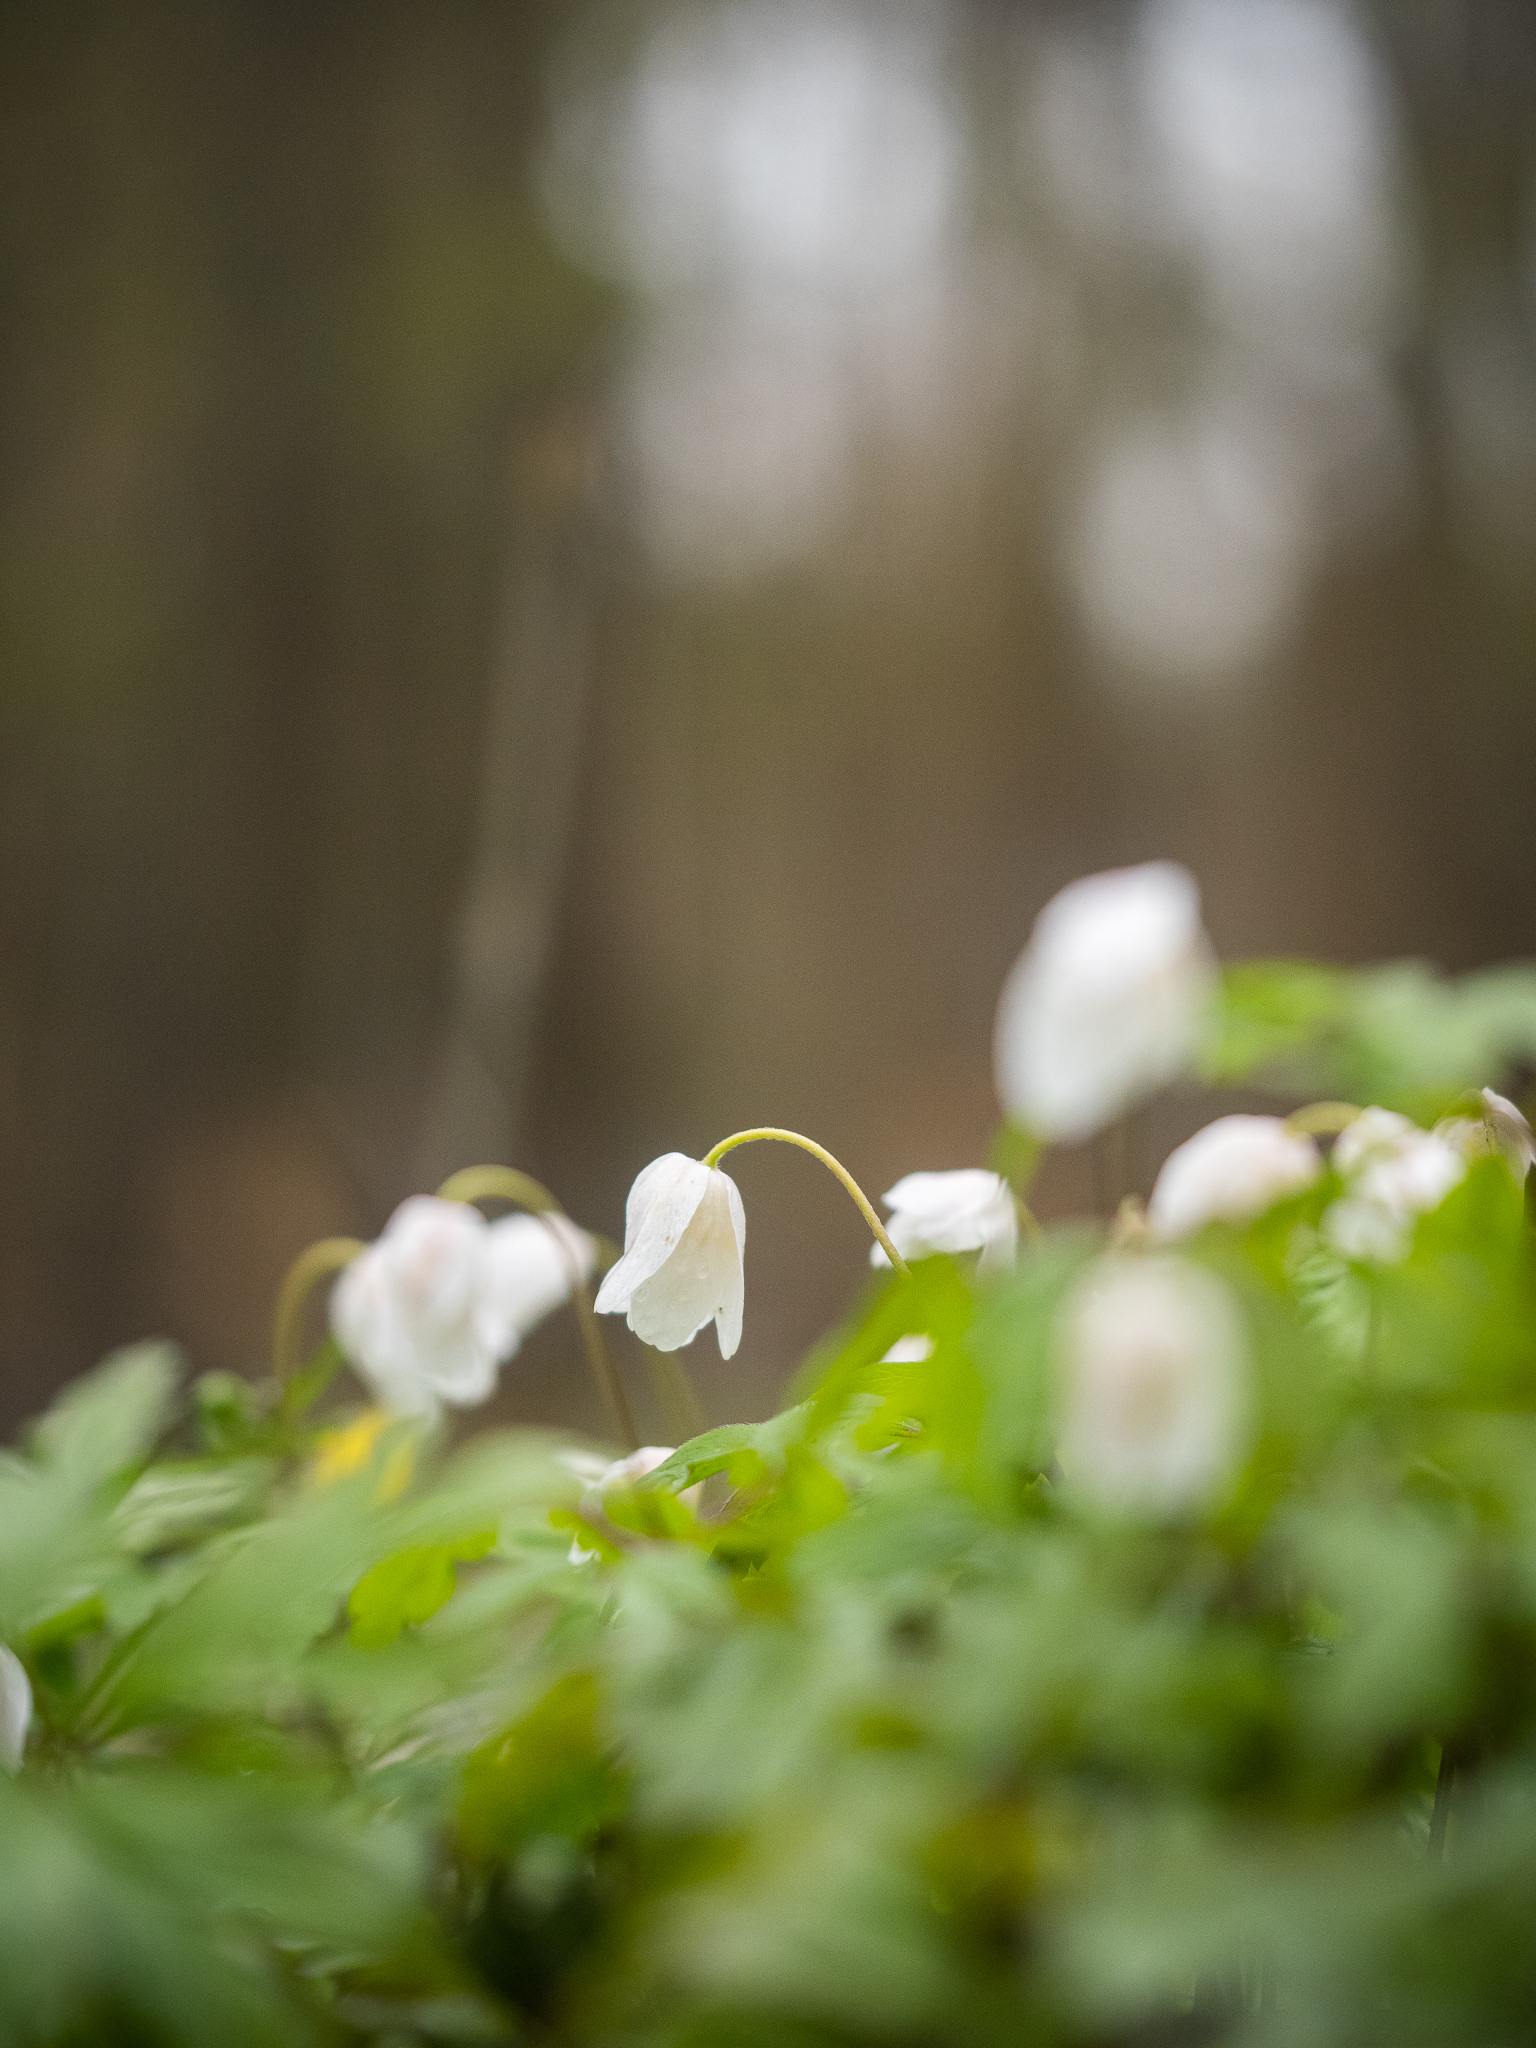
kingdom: Plantae
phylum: Tracheophyta
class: Magnoliopsida
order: Ranunculales
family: Ranunculaceae
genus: Anemone
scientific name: Anemone nemorosa
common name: Wood anemone
